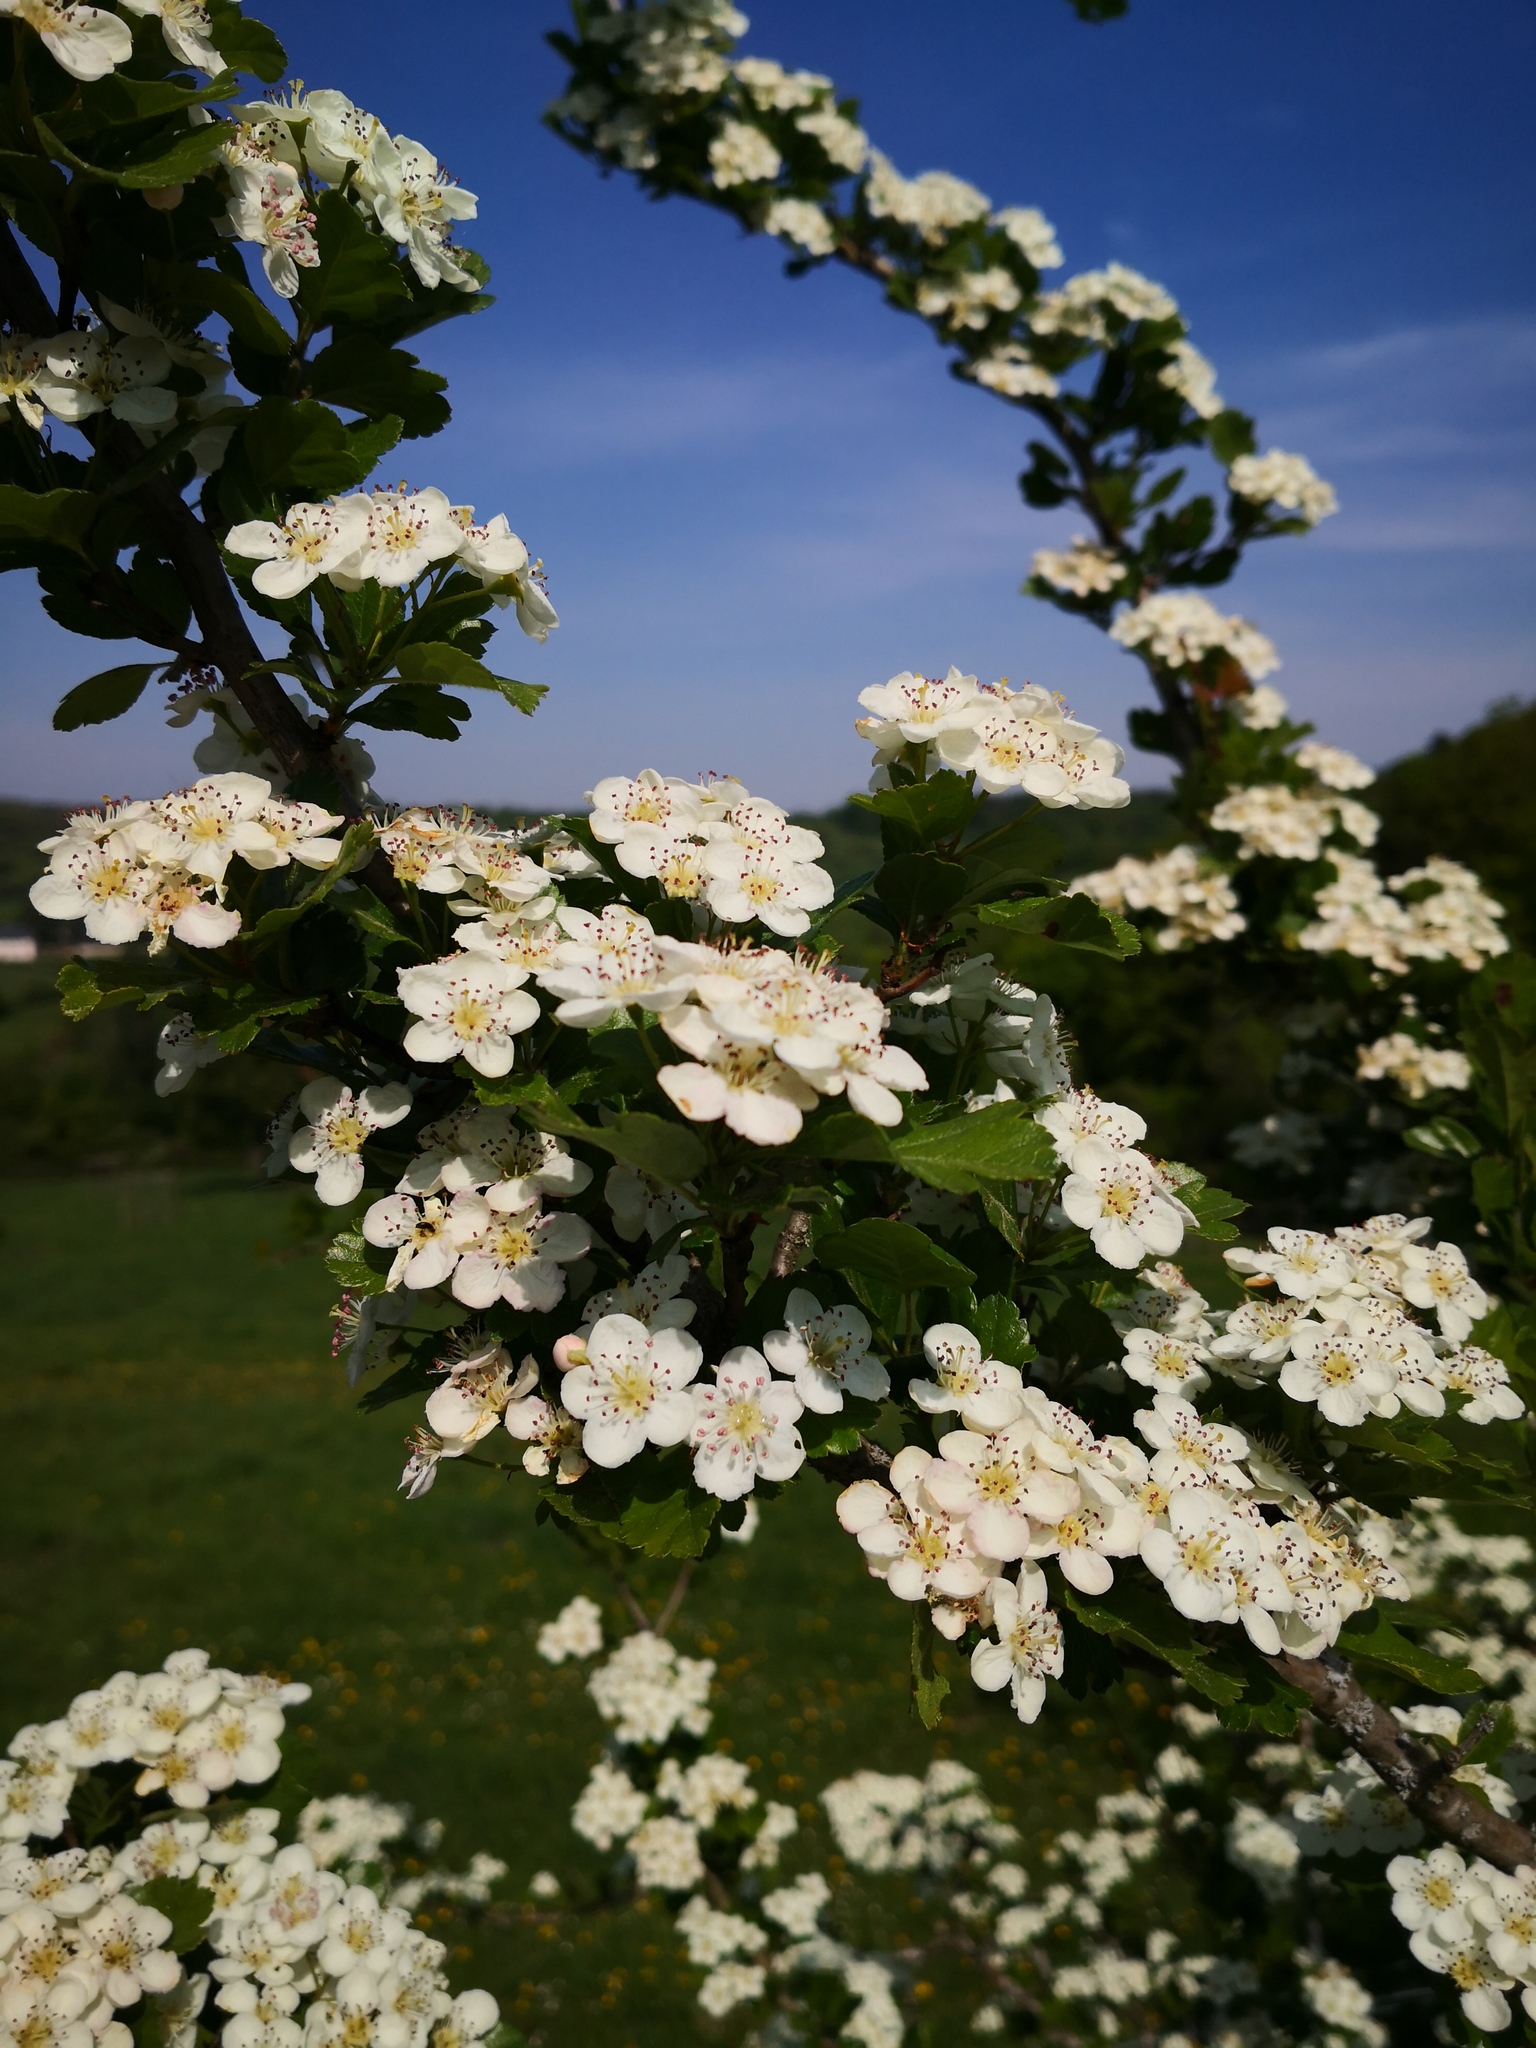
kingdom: Plantae
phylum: Tracheophyta
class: Magnoliopsida
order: Rosales
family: Rosaceae
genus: Crataegus
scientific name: Crataegus laevigata
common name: Midland hawthorn
